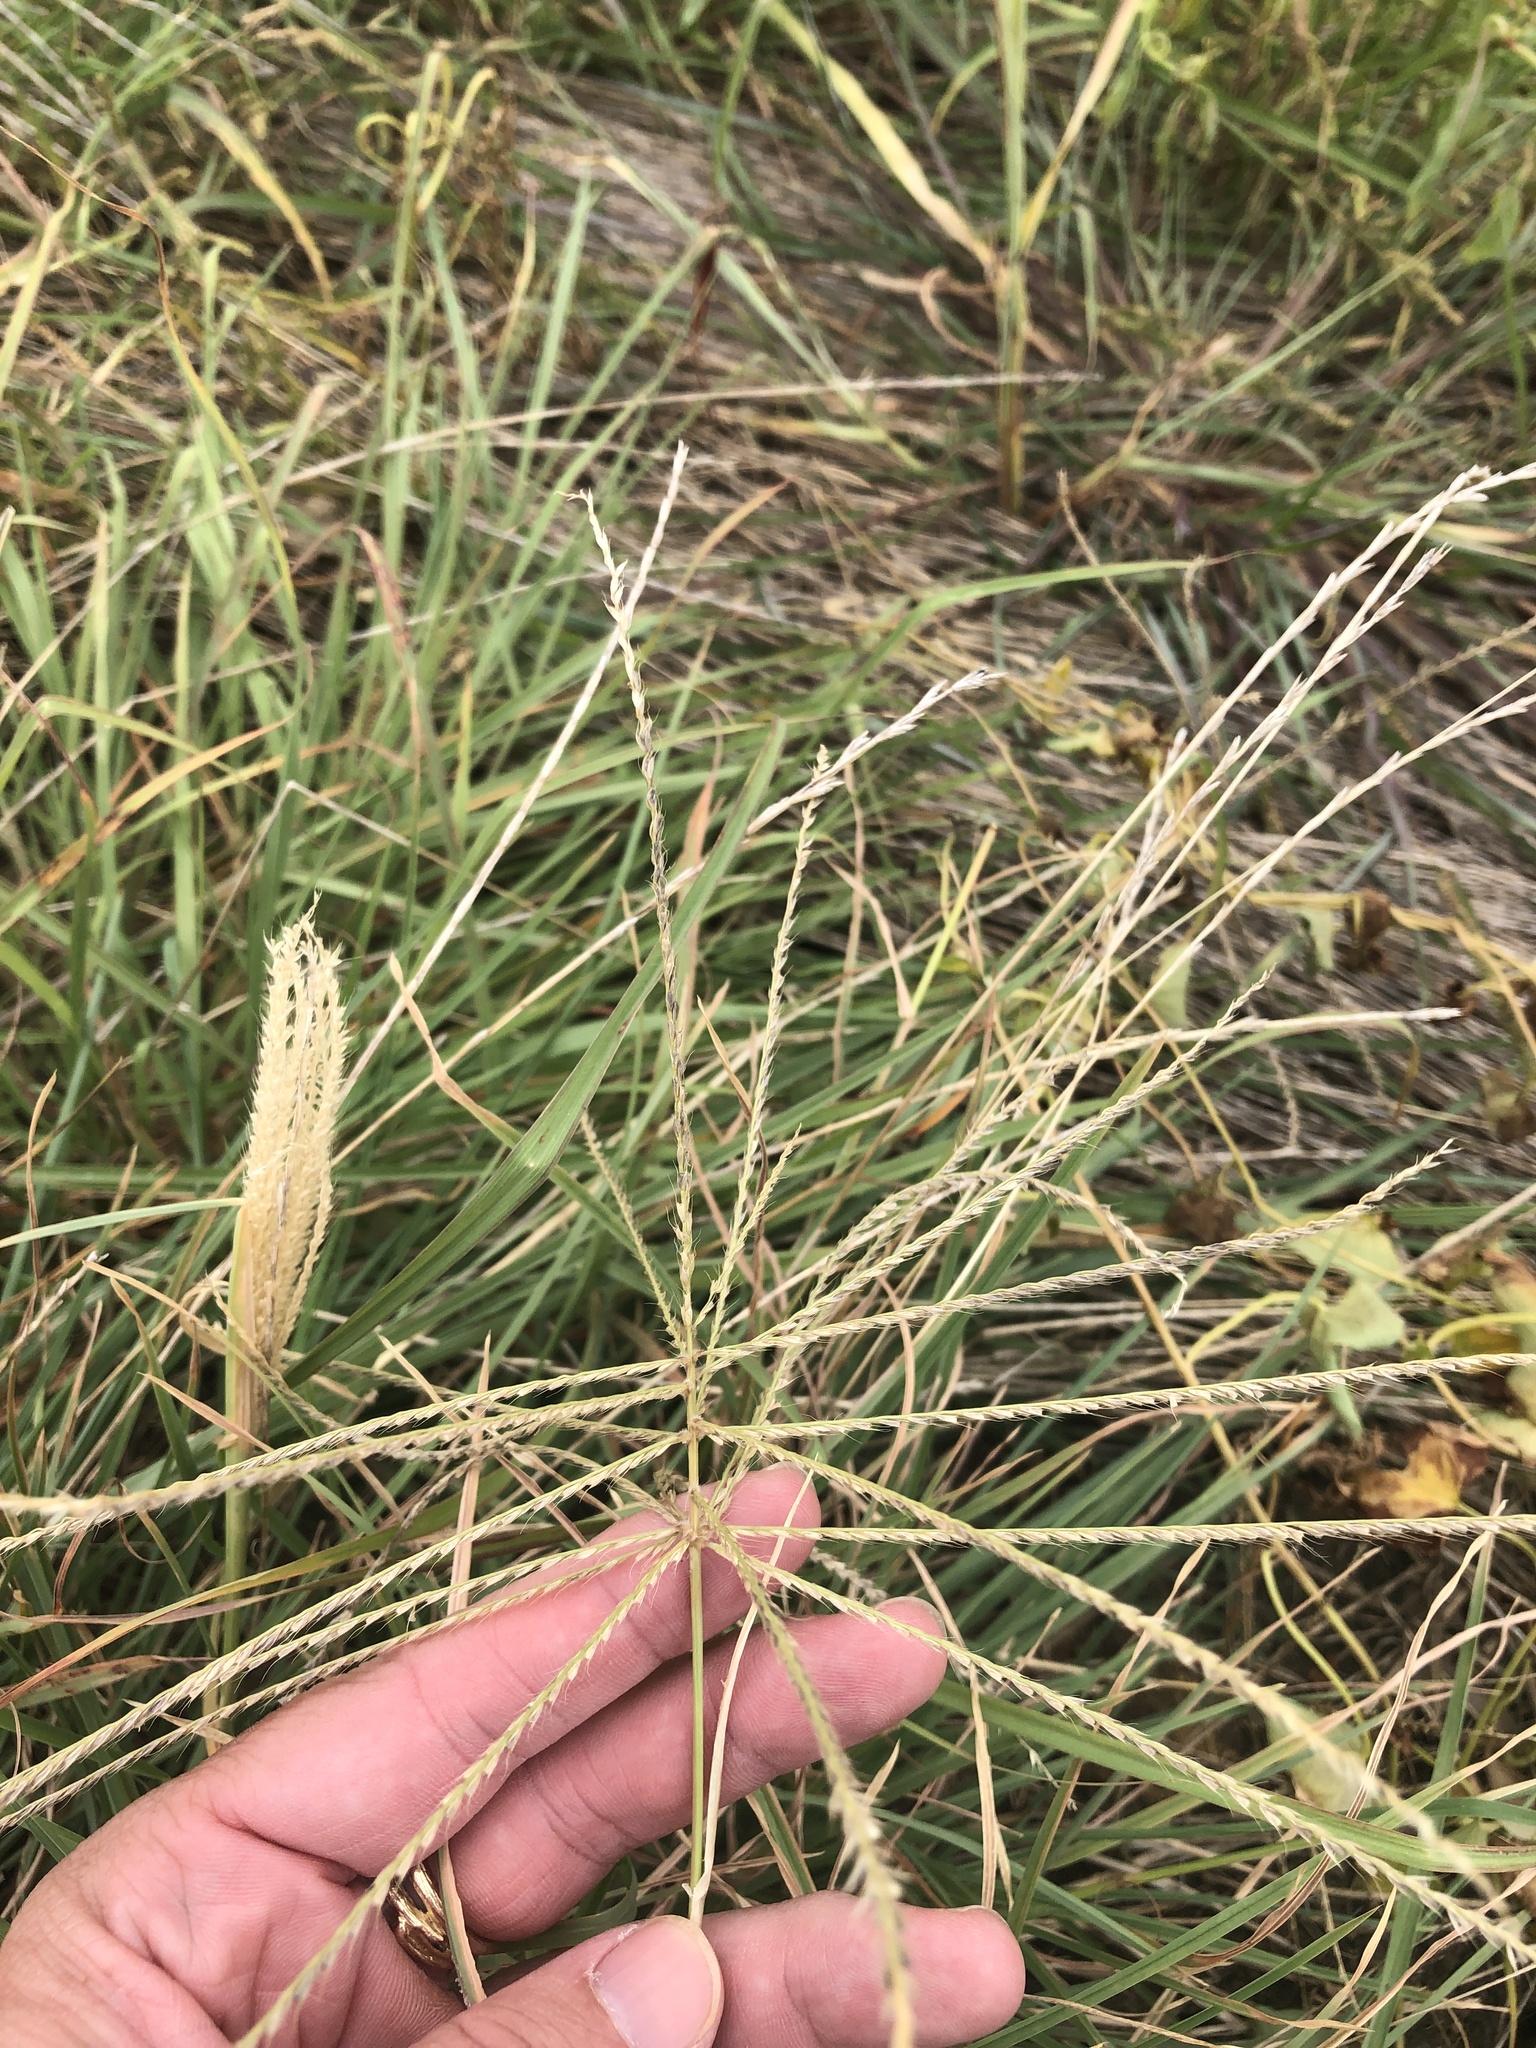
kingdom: Plantae
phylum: Tracheophyta
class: Liliopsida
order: Poales
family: Poaceae
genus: Chloris
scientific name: Chloris verticillata
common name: Tumble windmill grass
